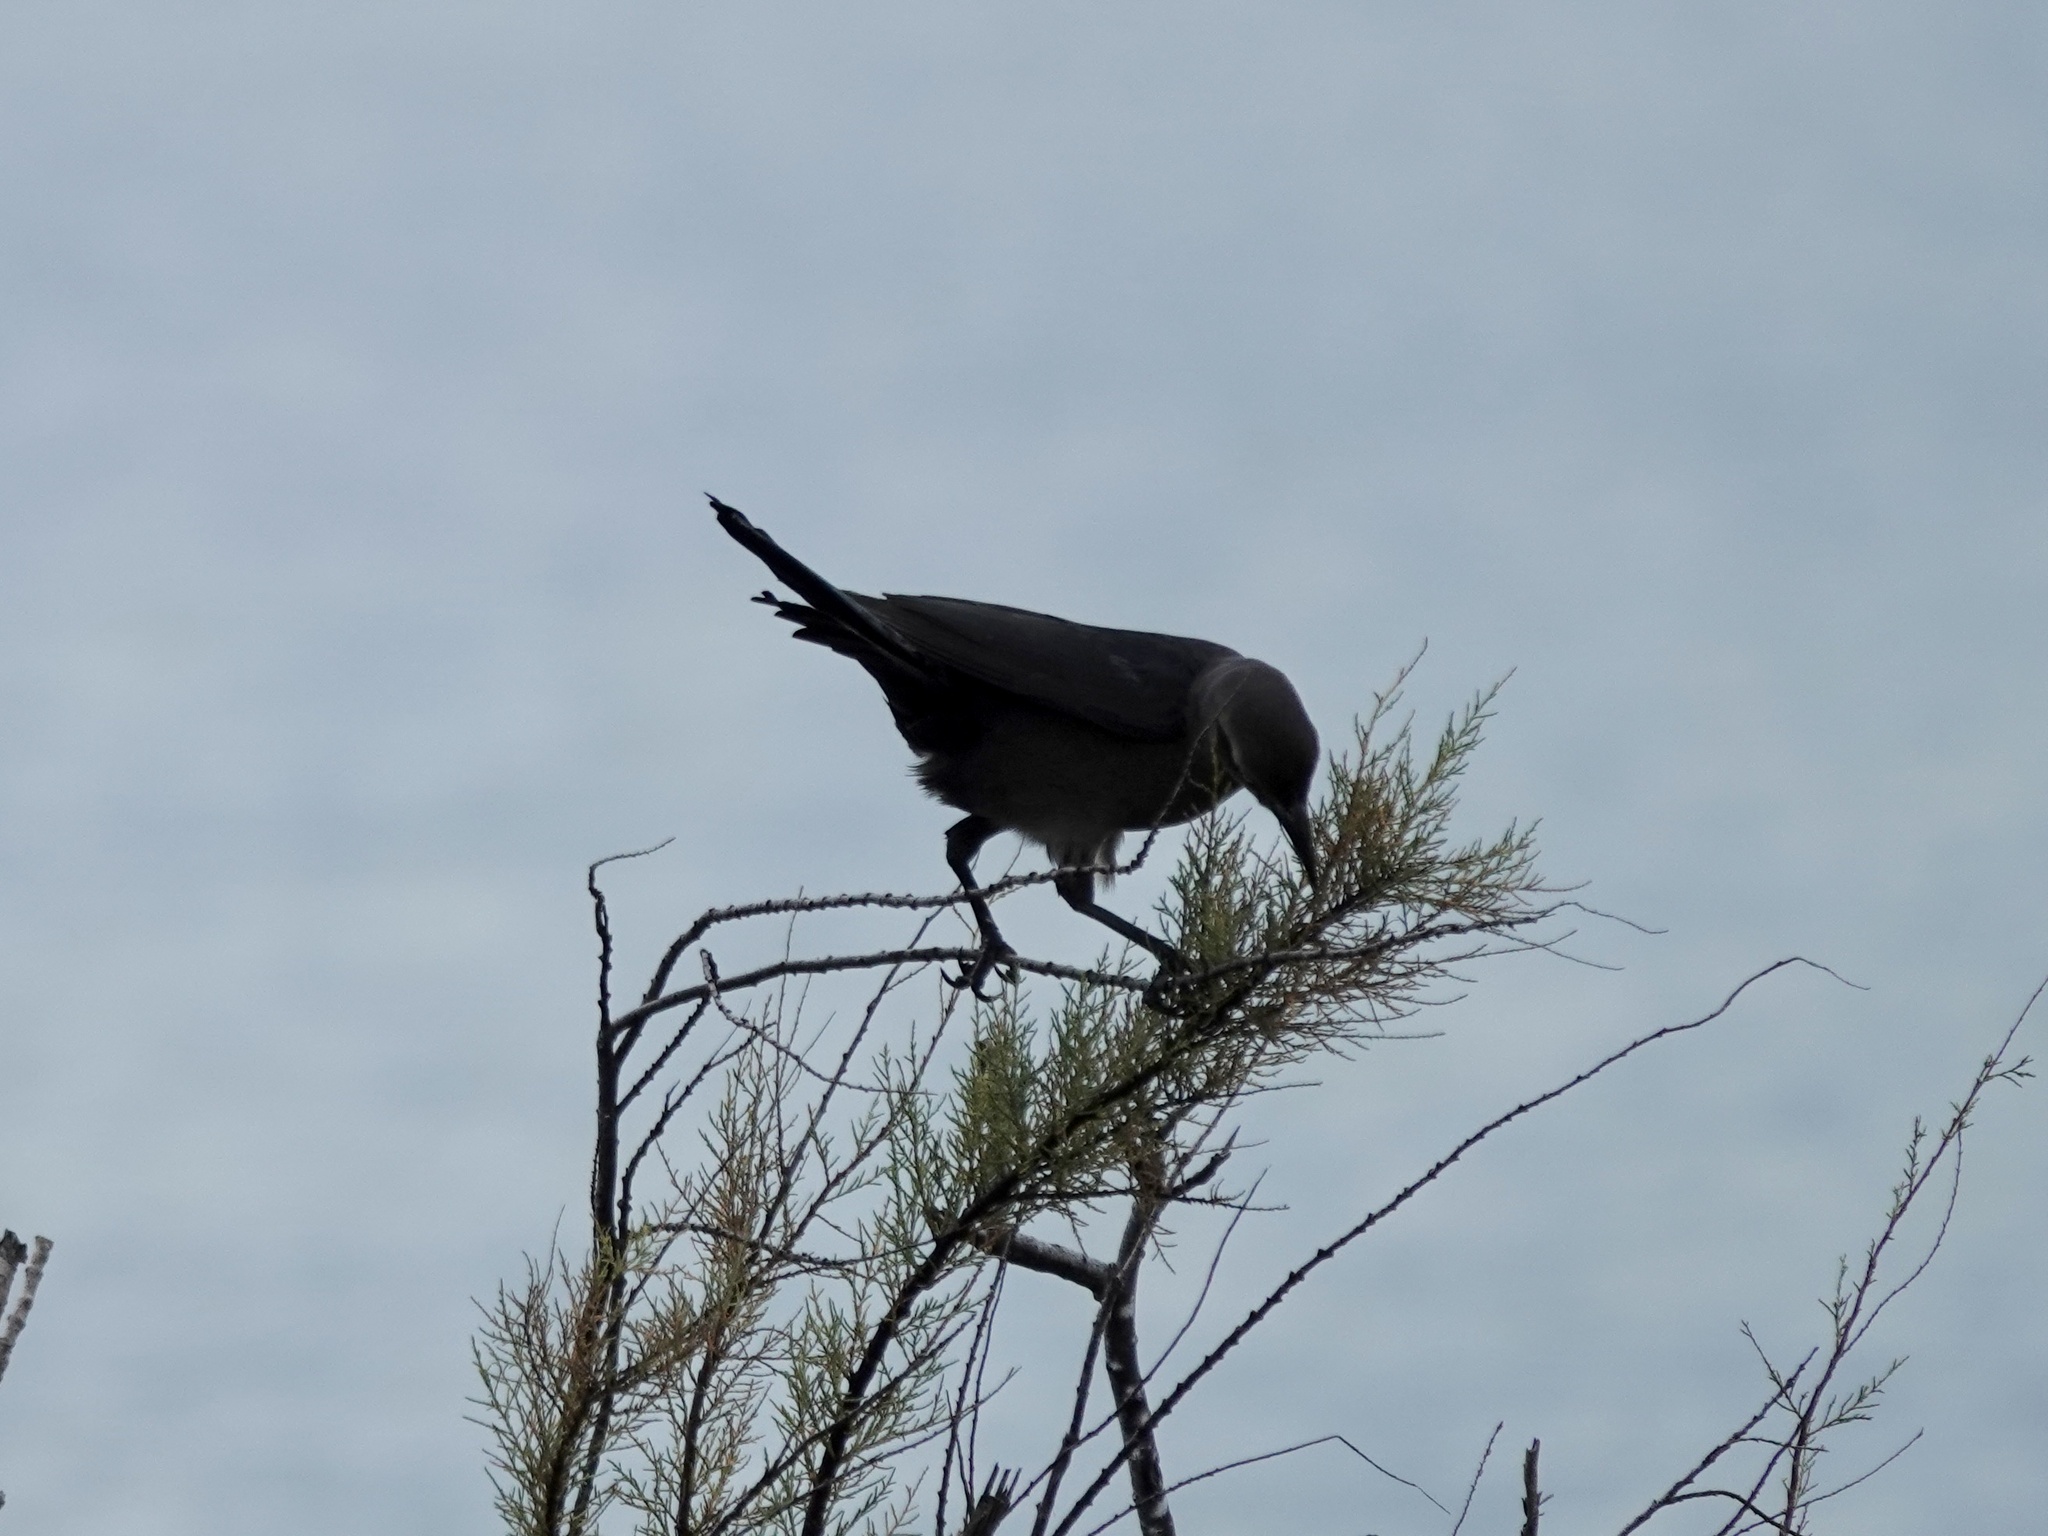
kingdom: Animalia
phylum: Chordata
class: Aves
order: Passeriformes
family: Icteridae
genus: Quiscalus
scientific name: Quiscalus mexicanus
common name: Great-tailed grackle
